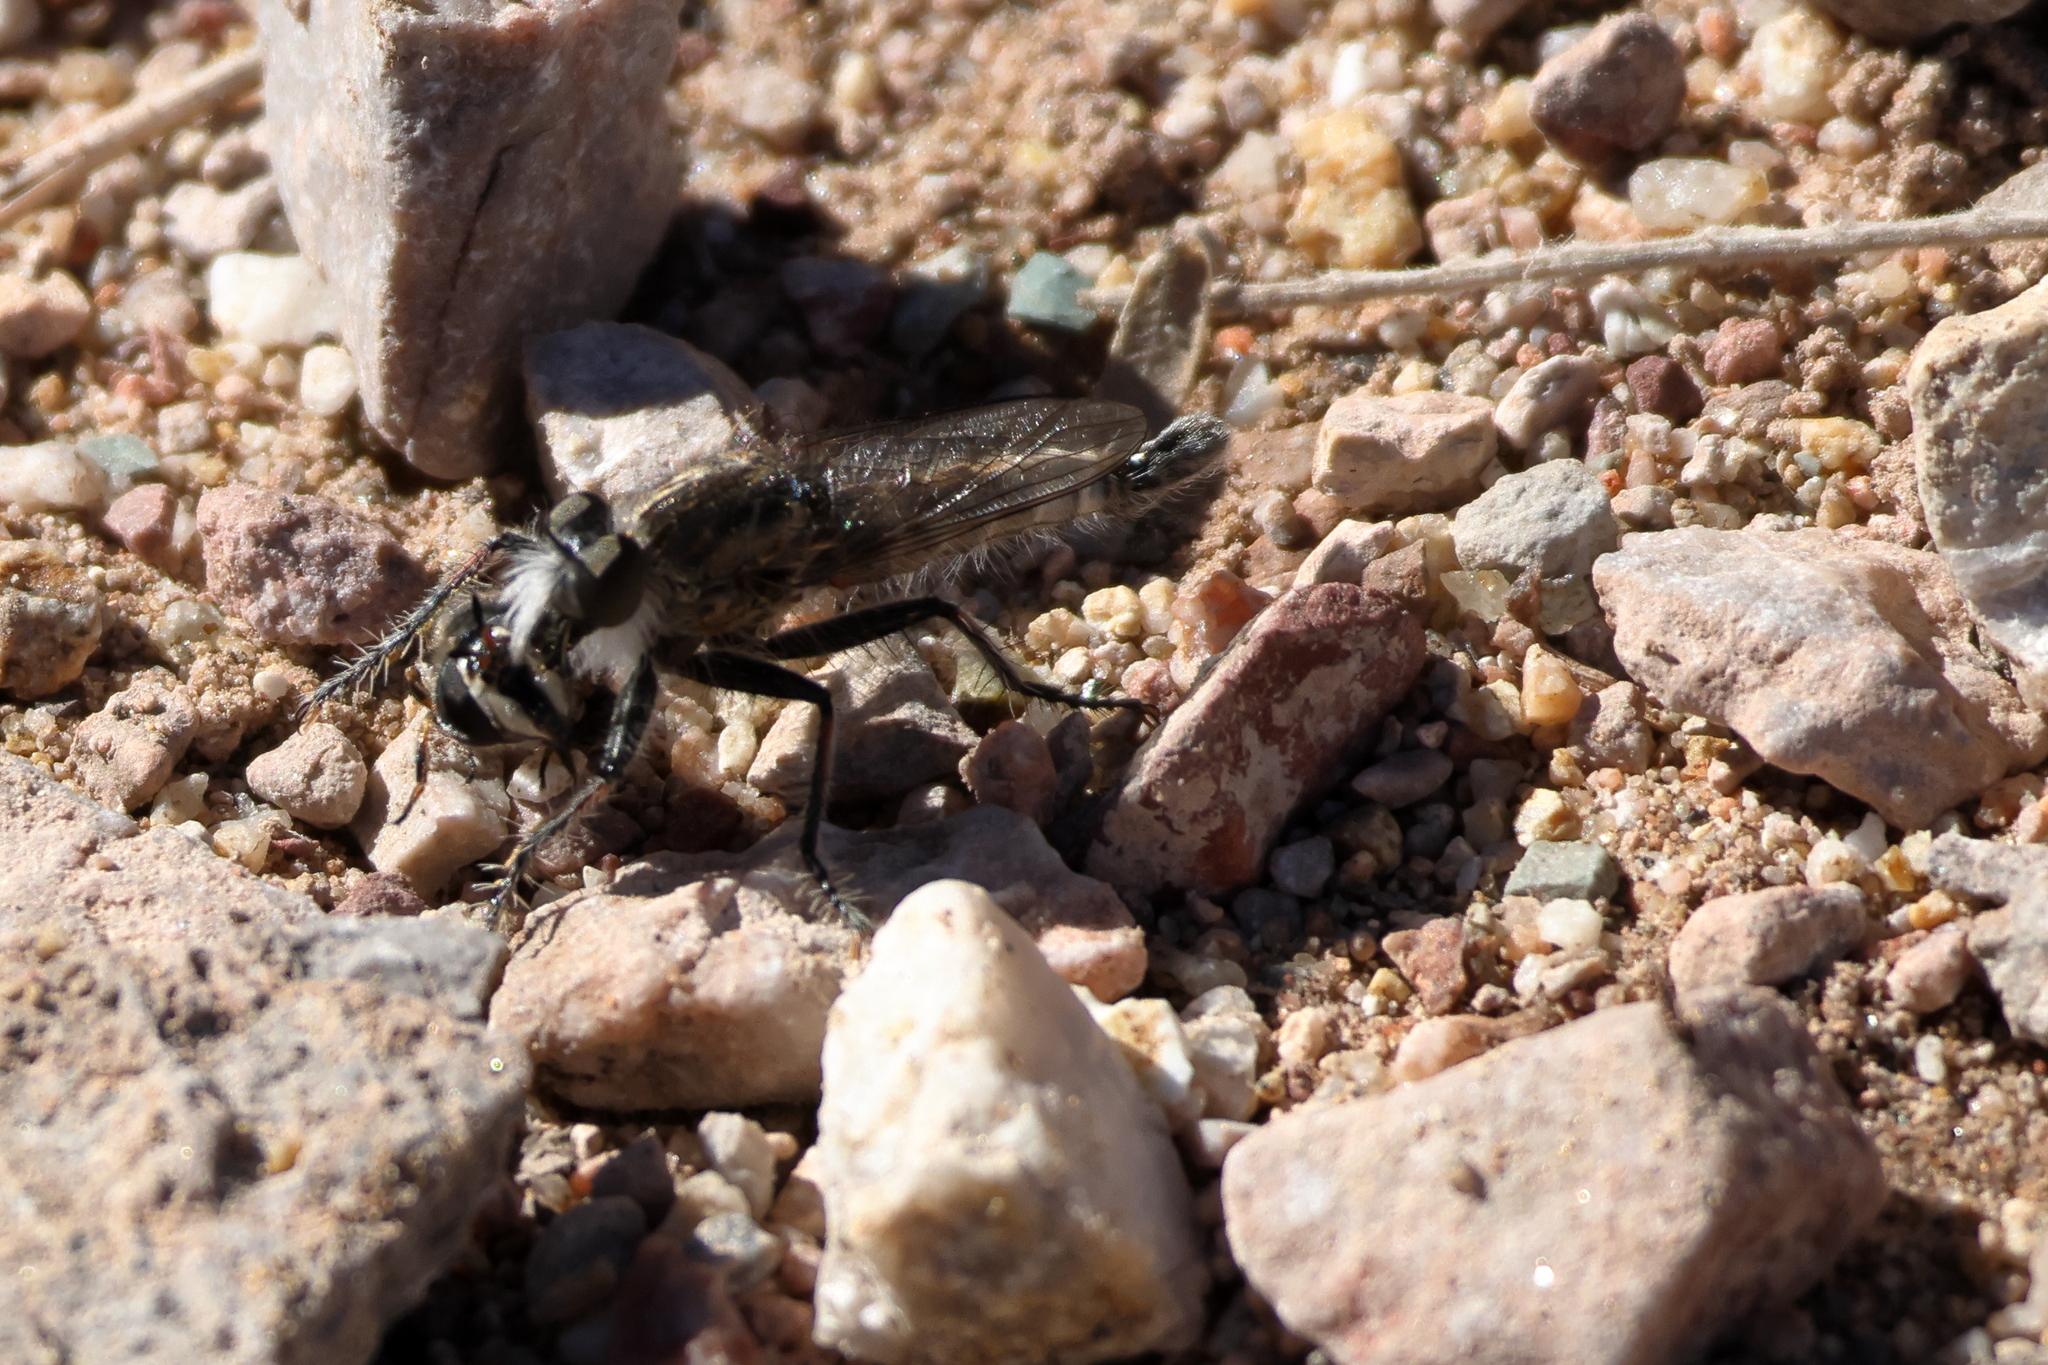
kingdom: Animalia
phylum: Arthropoda
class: Insecta
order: Diptera
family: Syrphidae
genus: Copestylum
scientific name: Copestylum marginatum
